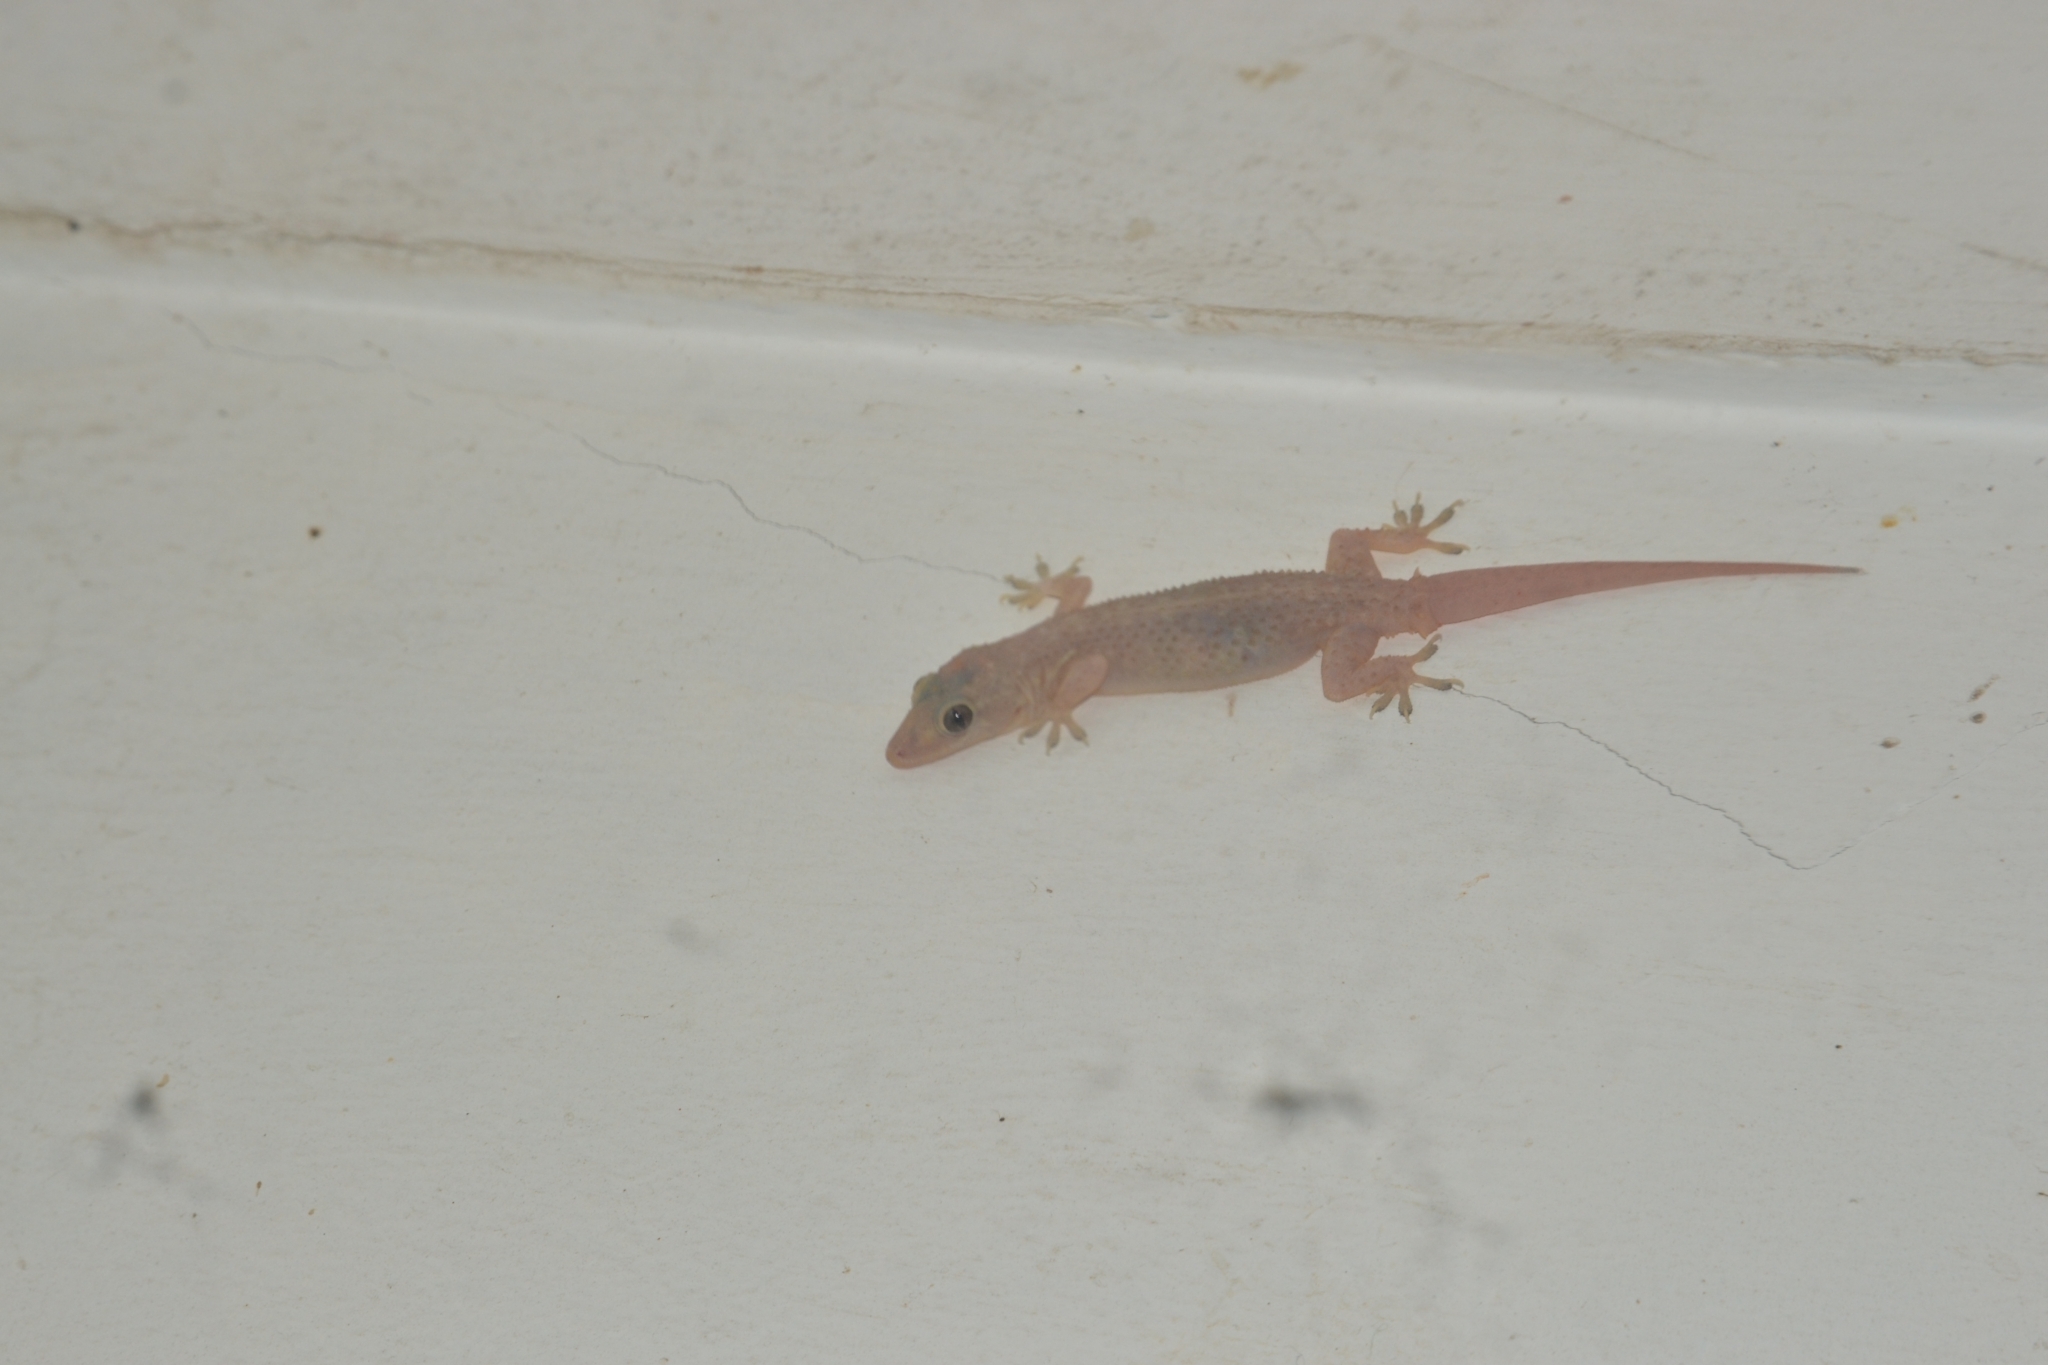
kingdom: Animalia
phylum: Chordata
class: Squamata
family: Gekkonidae
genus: Hemidactylus
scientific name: Hemidactylus parvimaculatus
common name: Spotted house gecko
